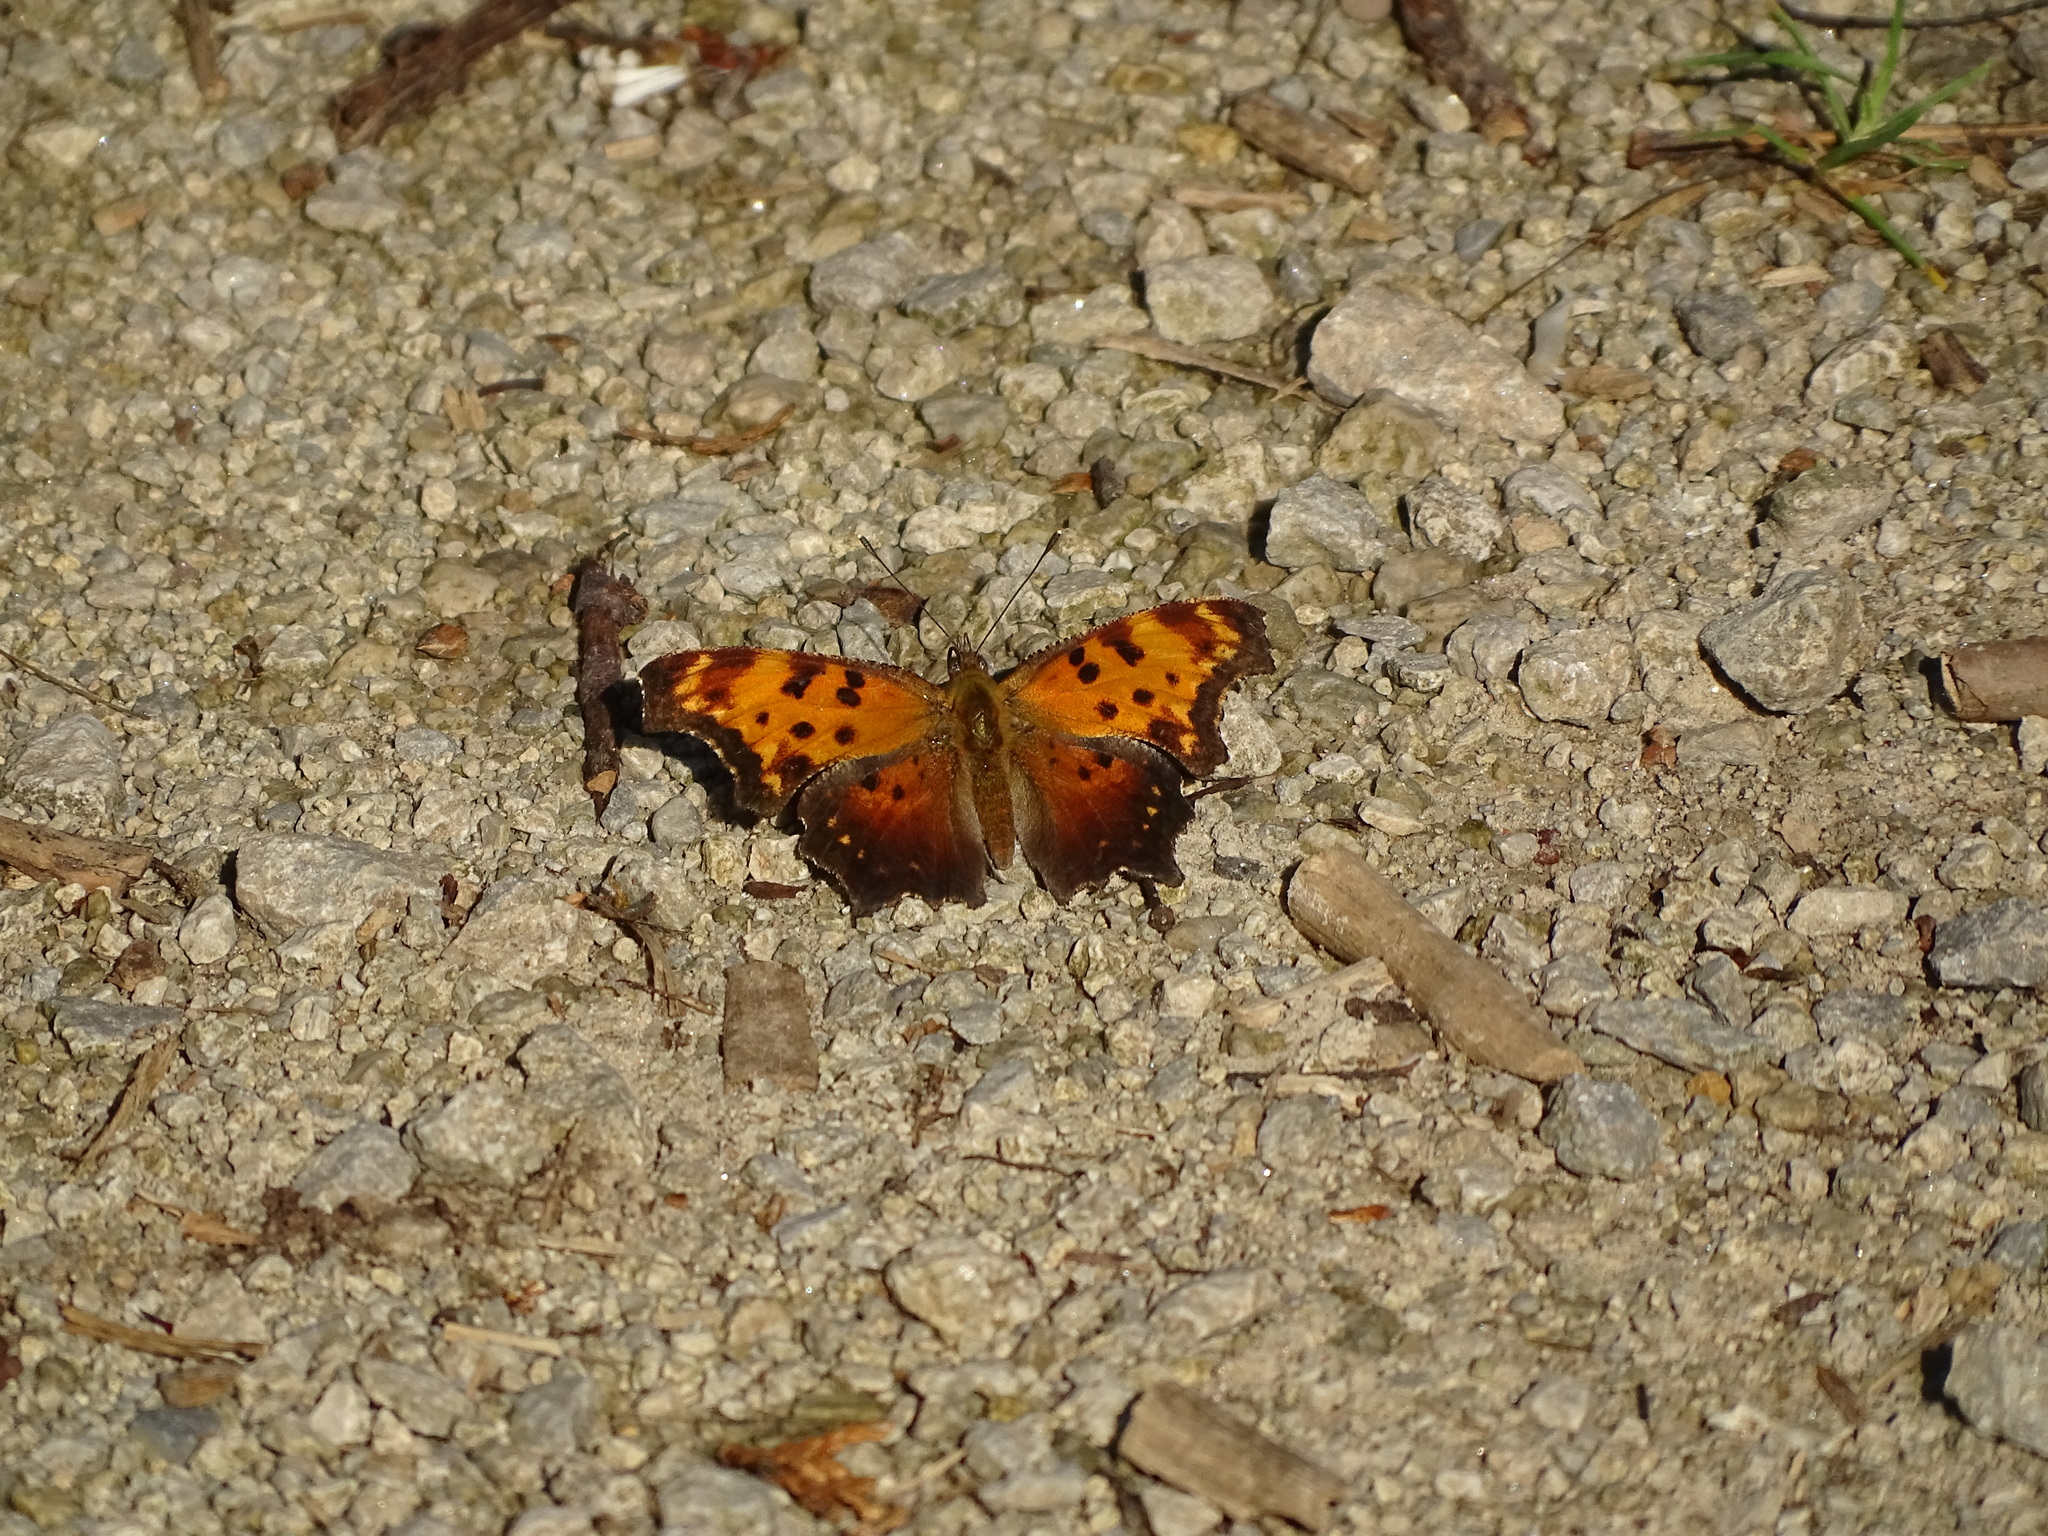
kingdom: Animalia
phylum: Arthropoda
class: Insecta
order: Lepidoptera
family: Nymphalidae
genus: Polygonia
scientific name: Polygonia progne
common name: Gray comma
